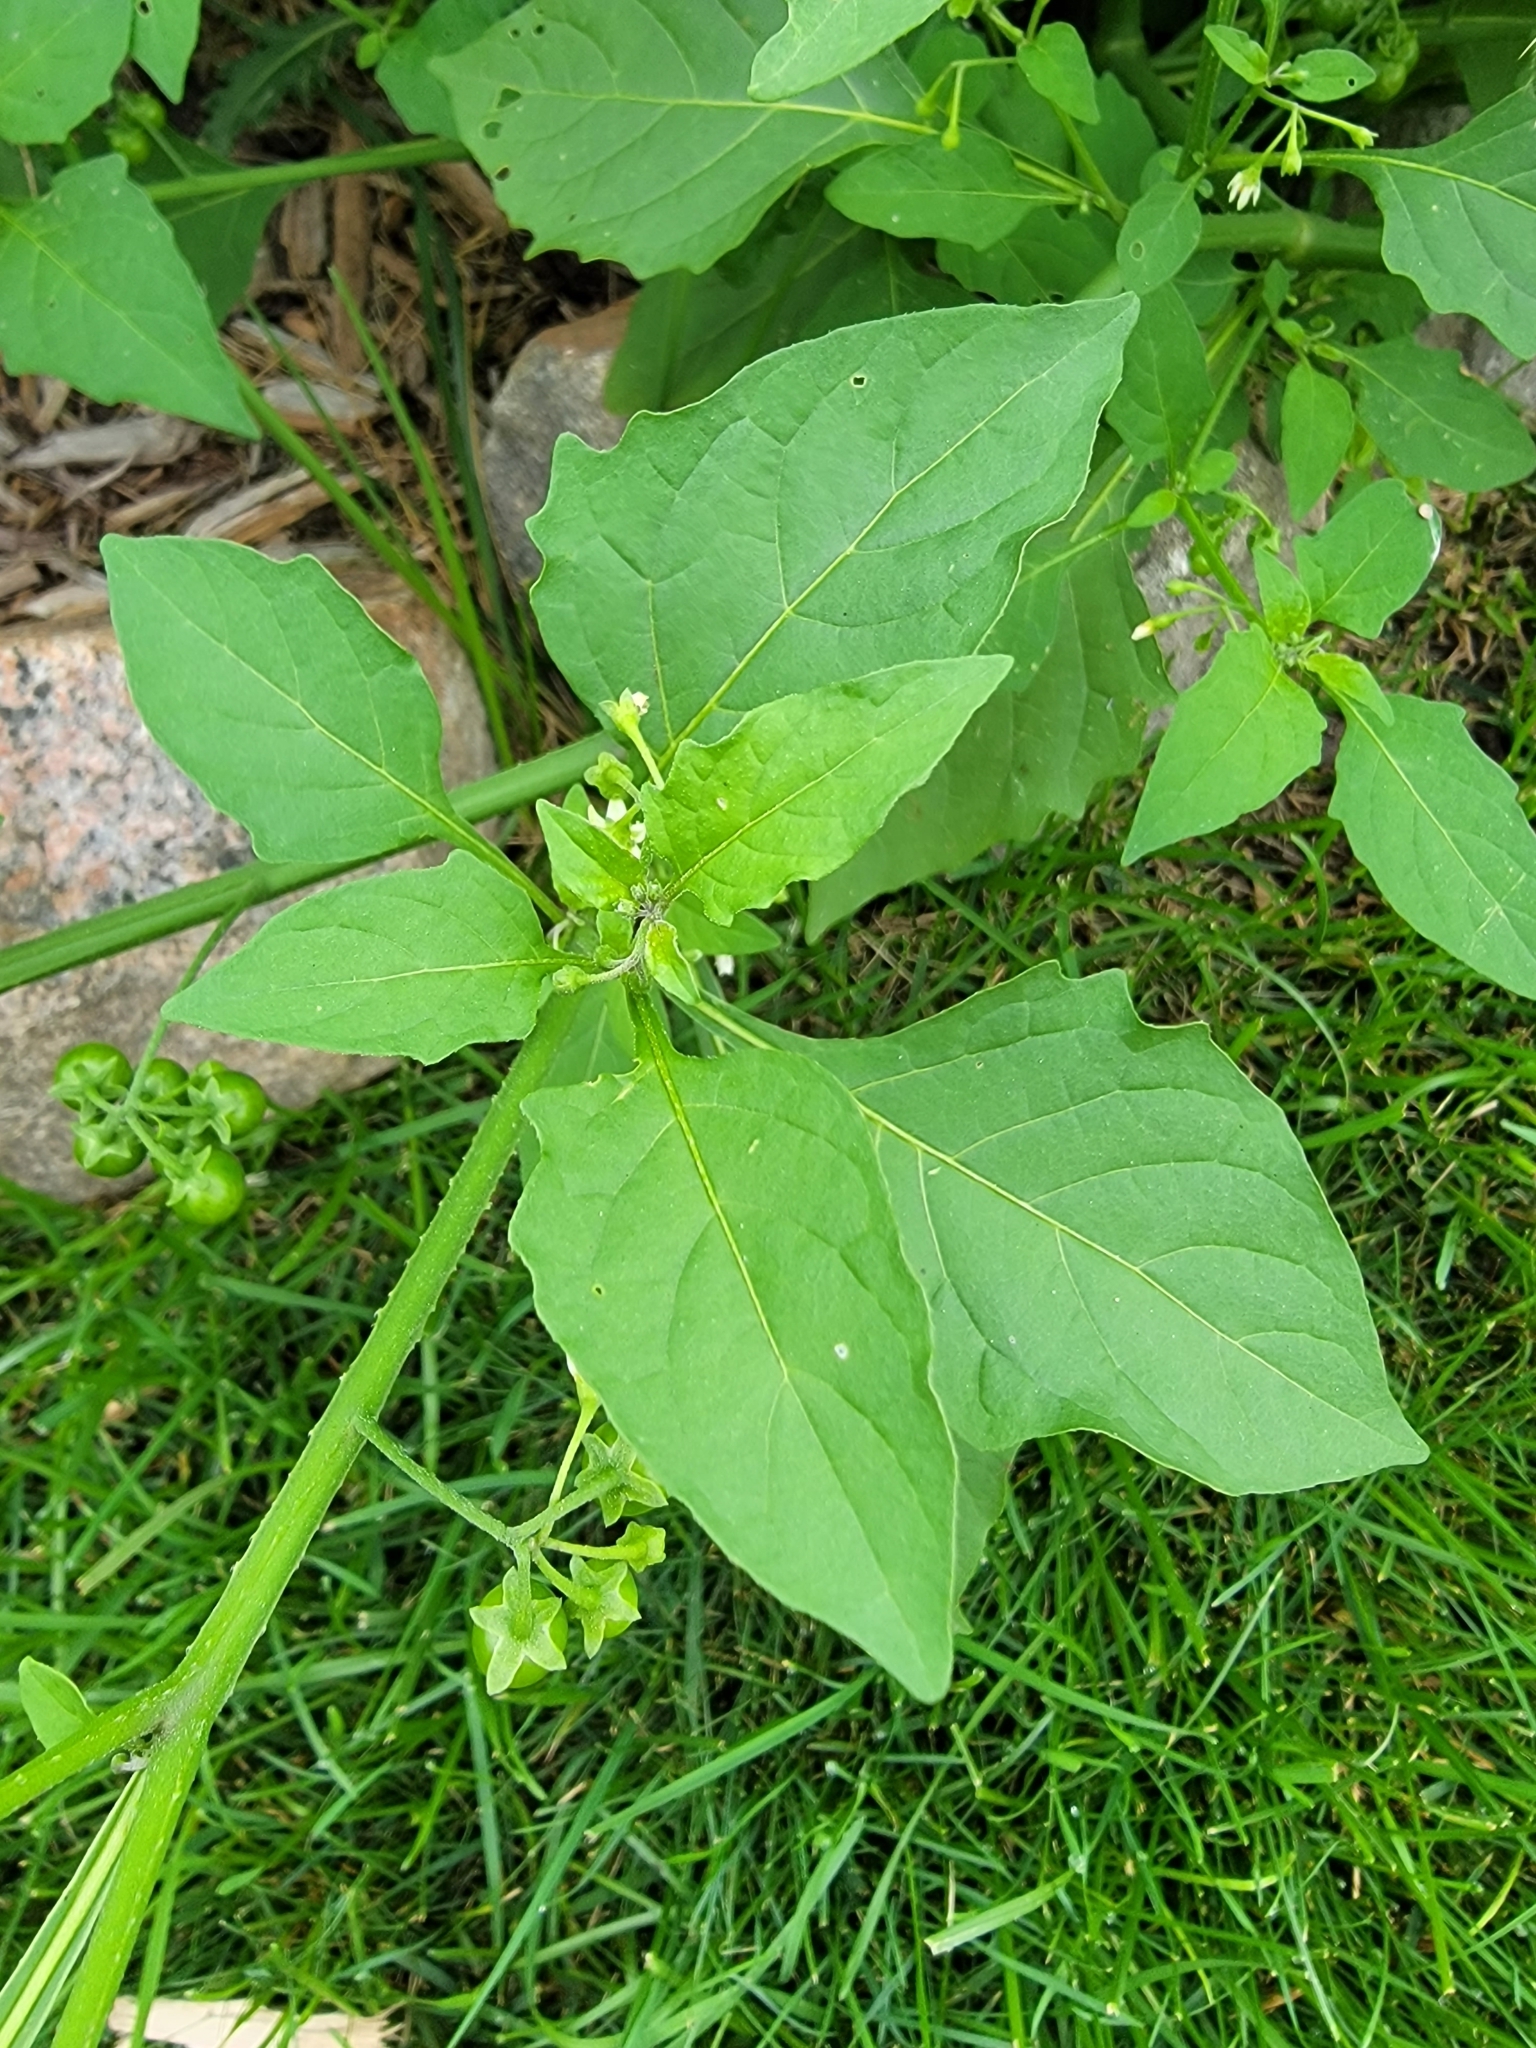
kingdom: Plantae
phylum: Tracheophyta
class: Magnoliopsida
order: Solanales
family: Solanaceae
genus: Solanum
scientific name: Solanum emulans
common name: Eastern black nightshade
